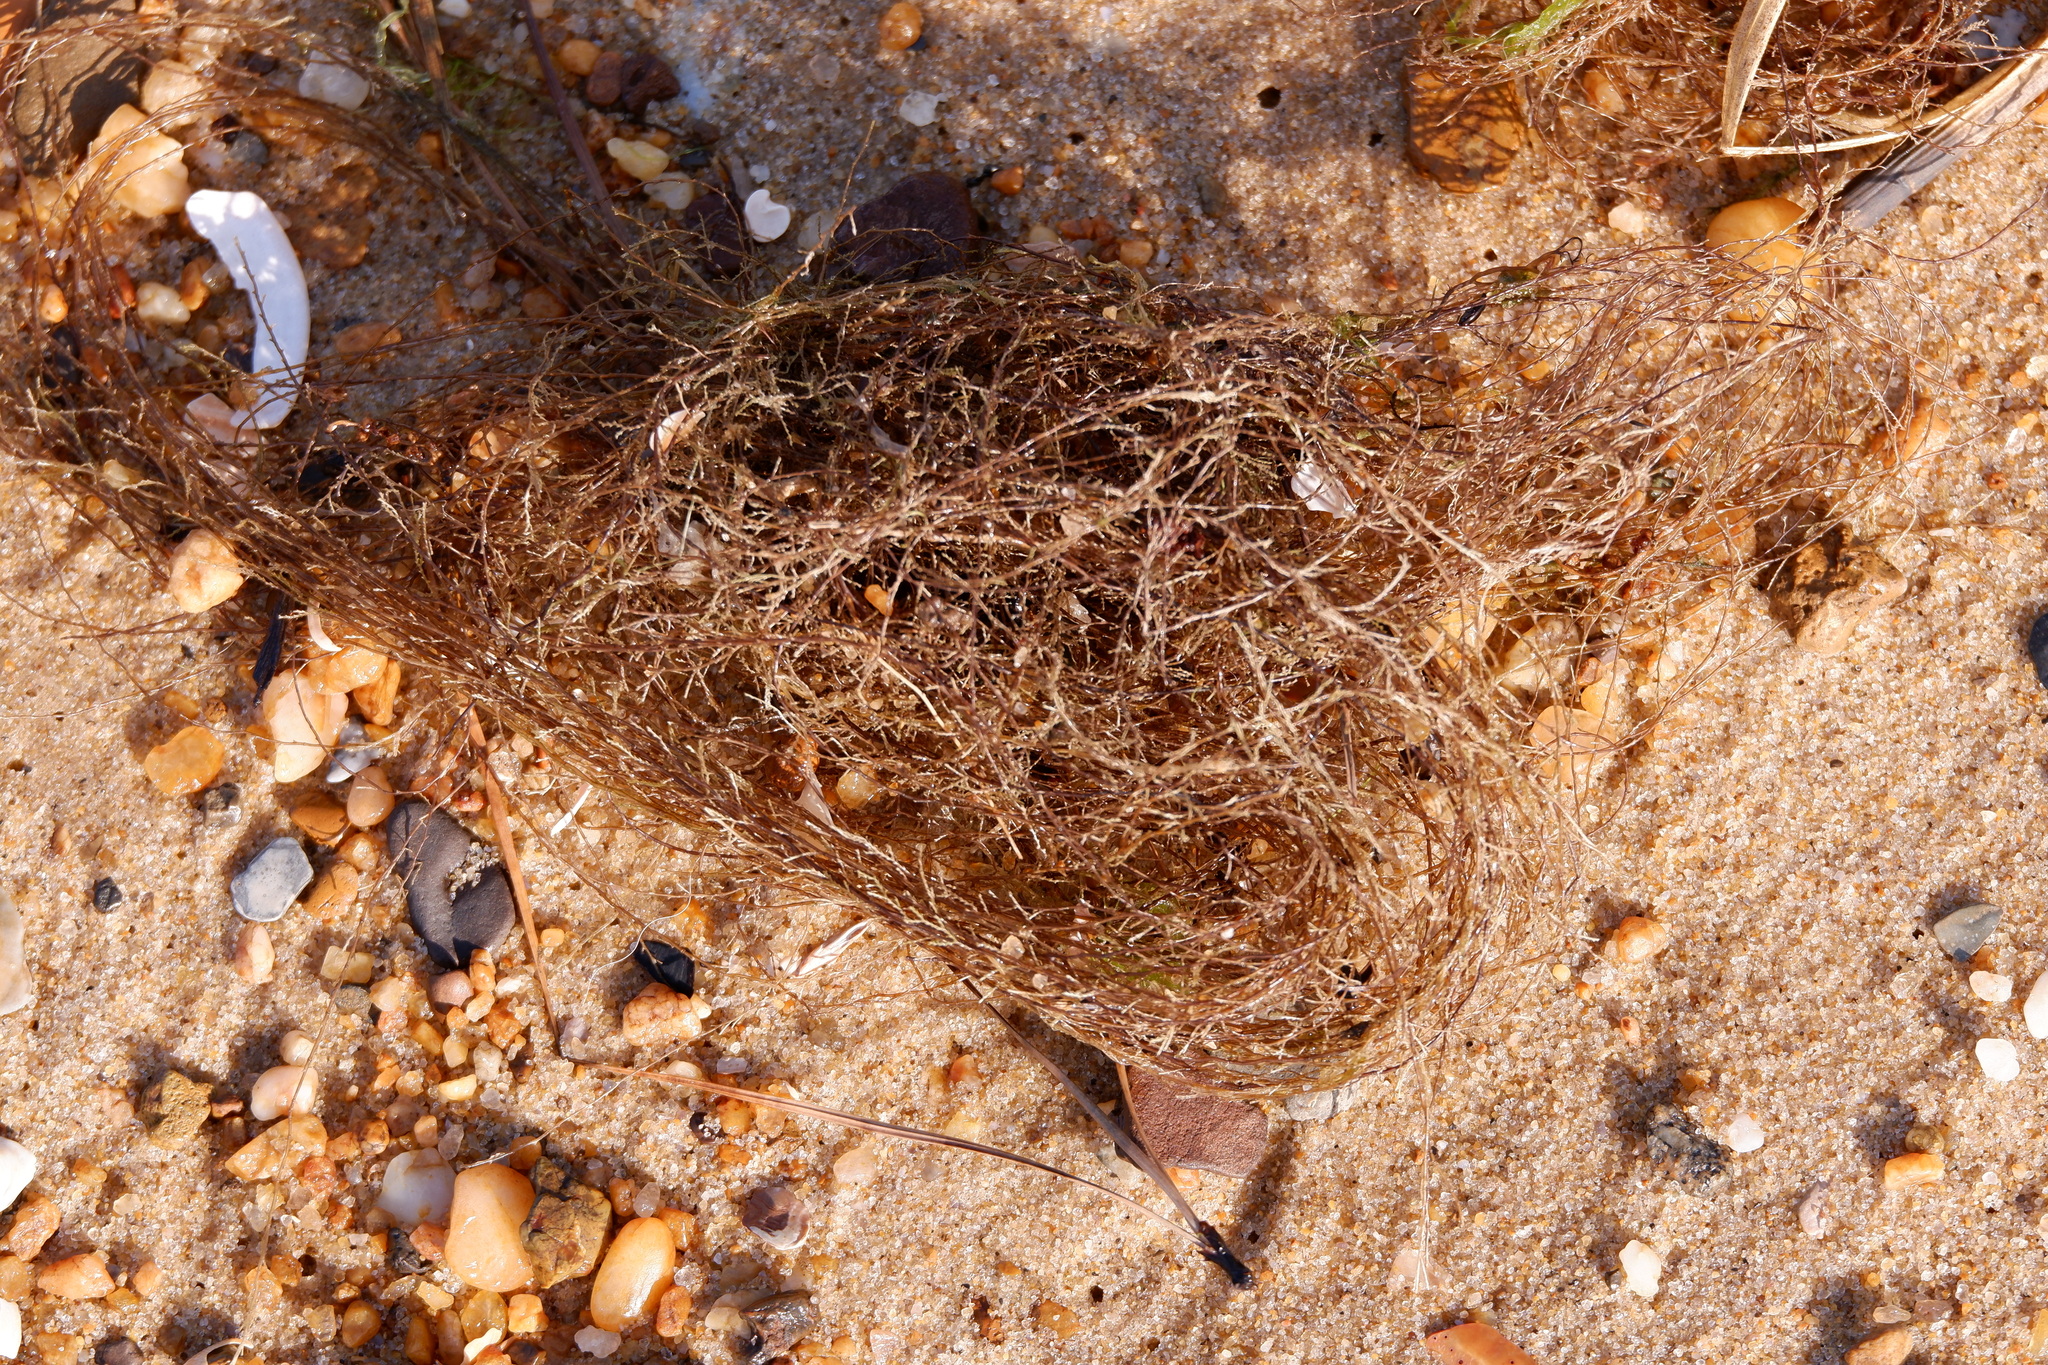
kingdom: Chromista
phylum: Ochrophyta
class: Phaeophyceae
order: Fucales
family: Sargassaceae
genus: Sargassum
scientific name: Sargassum fluitans
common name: Sargassum seaweed
